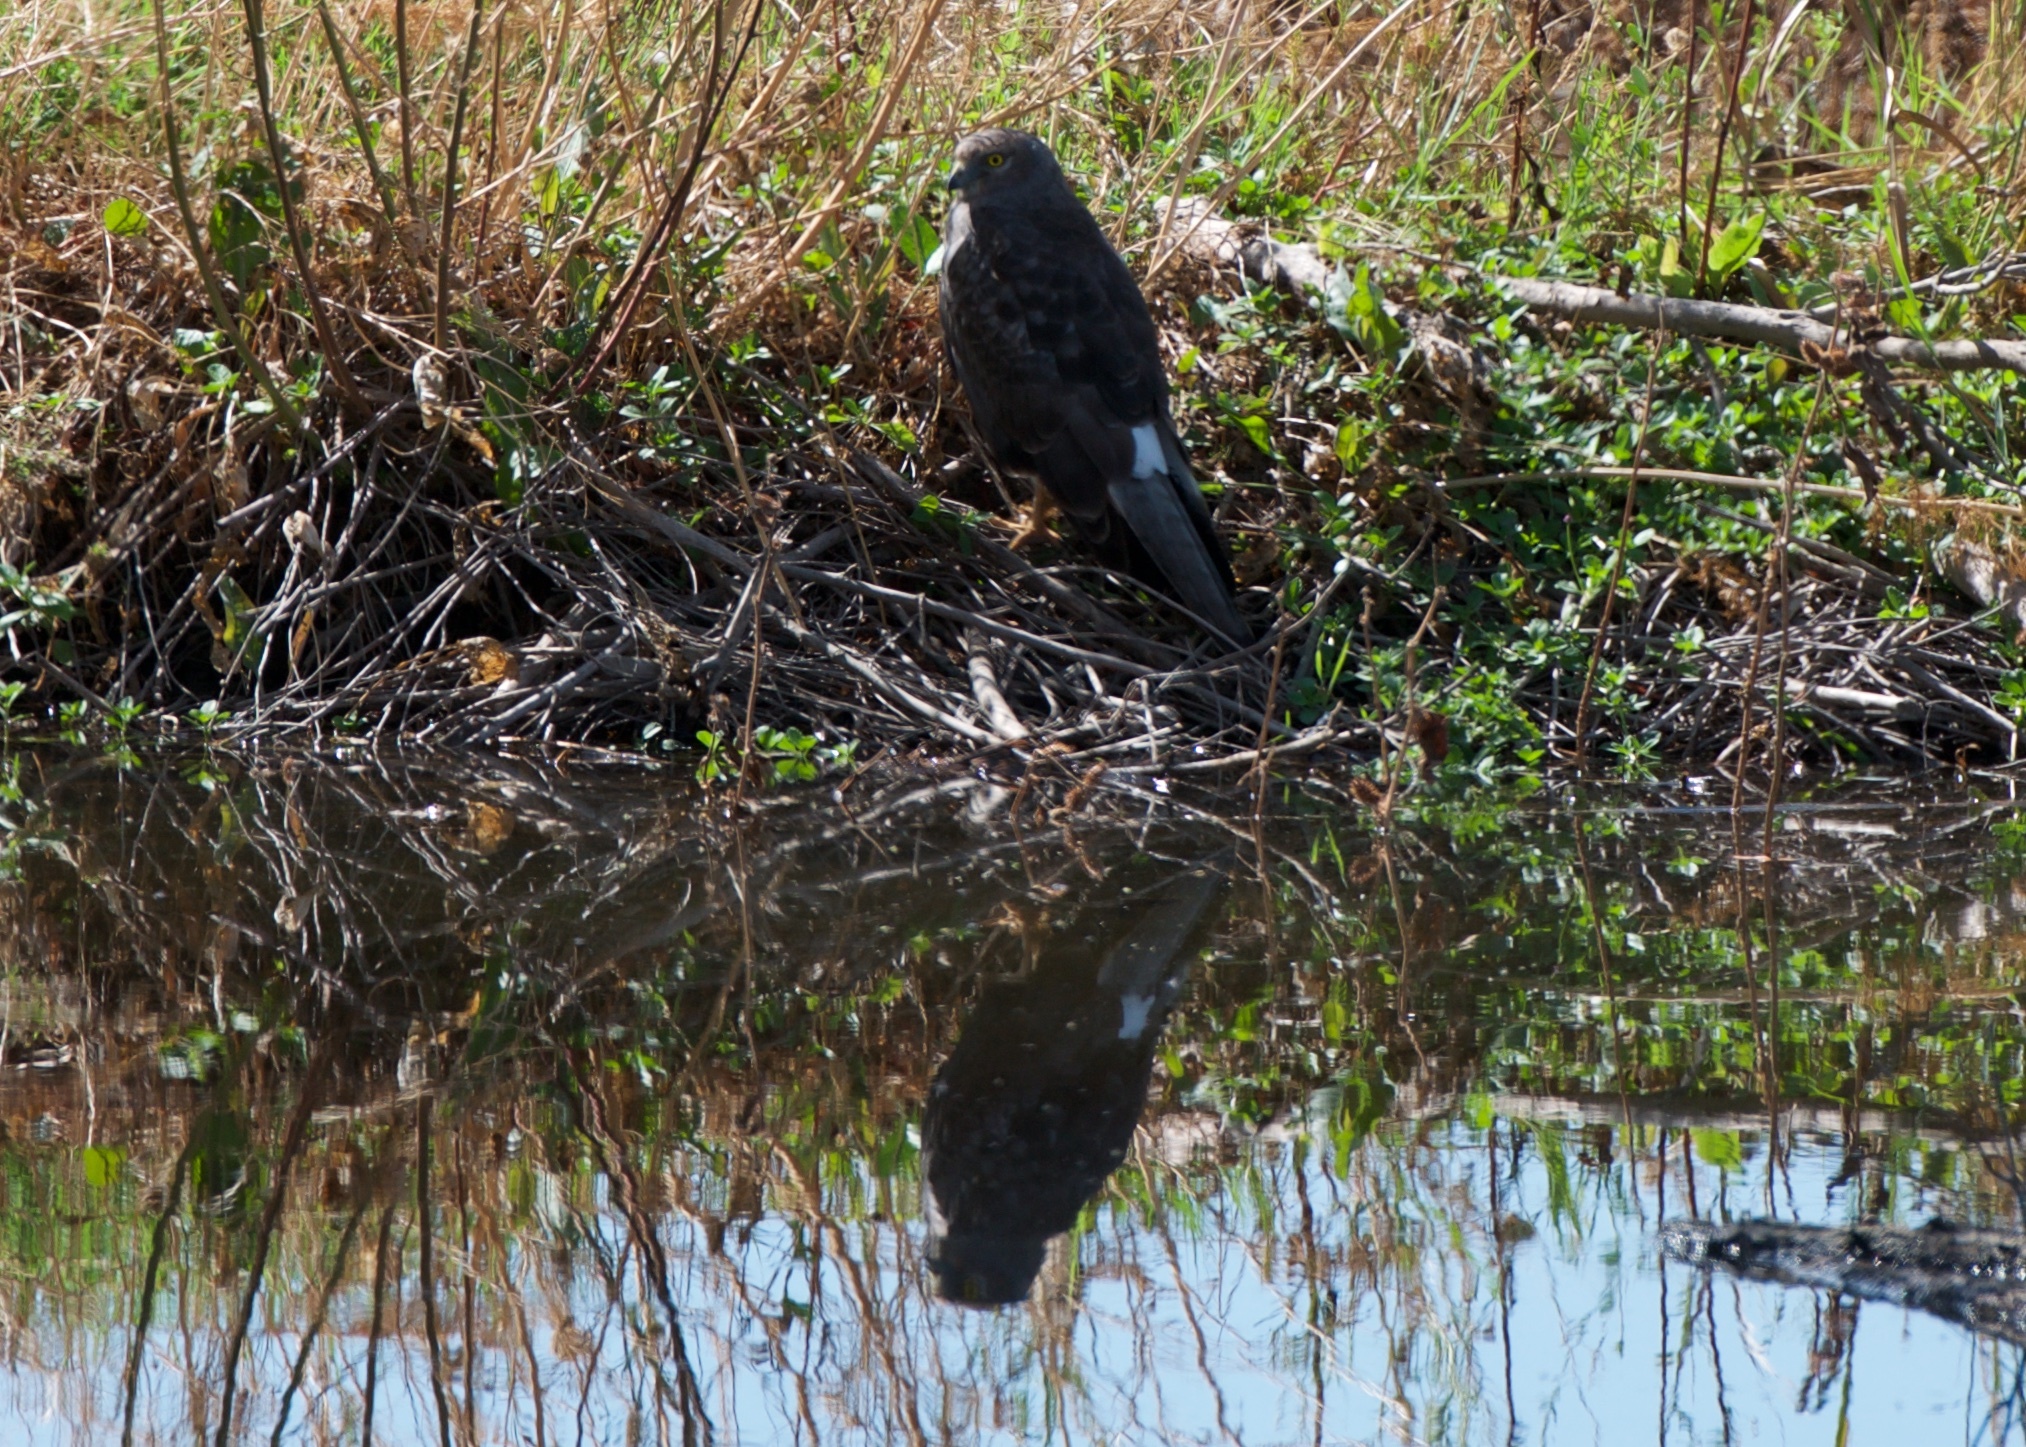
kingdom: Animalia
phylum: Chordata
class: Aves
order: Accipitriformes
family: Accipitridae
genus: Circus
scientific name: Circus cyaneus
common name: Hen harrier
